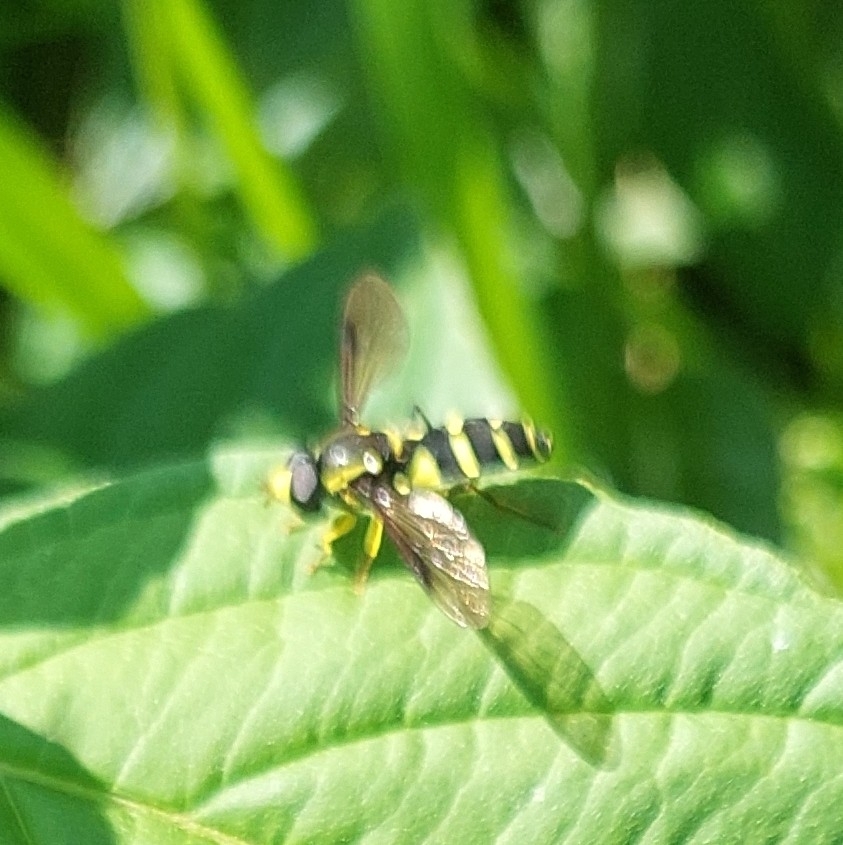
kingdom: Animalia
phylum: Arthropoda
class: Insecta
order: Diptera
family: Syrphidae
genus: Xanthogramma
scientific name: Xanthogramma
